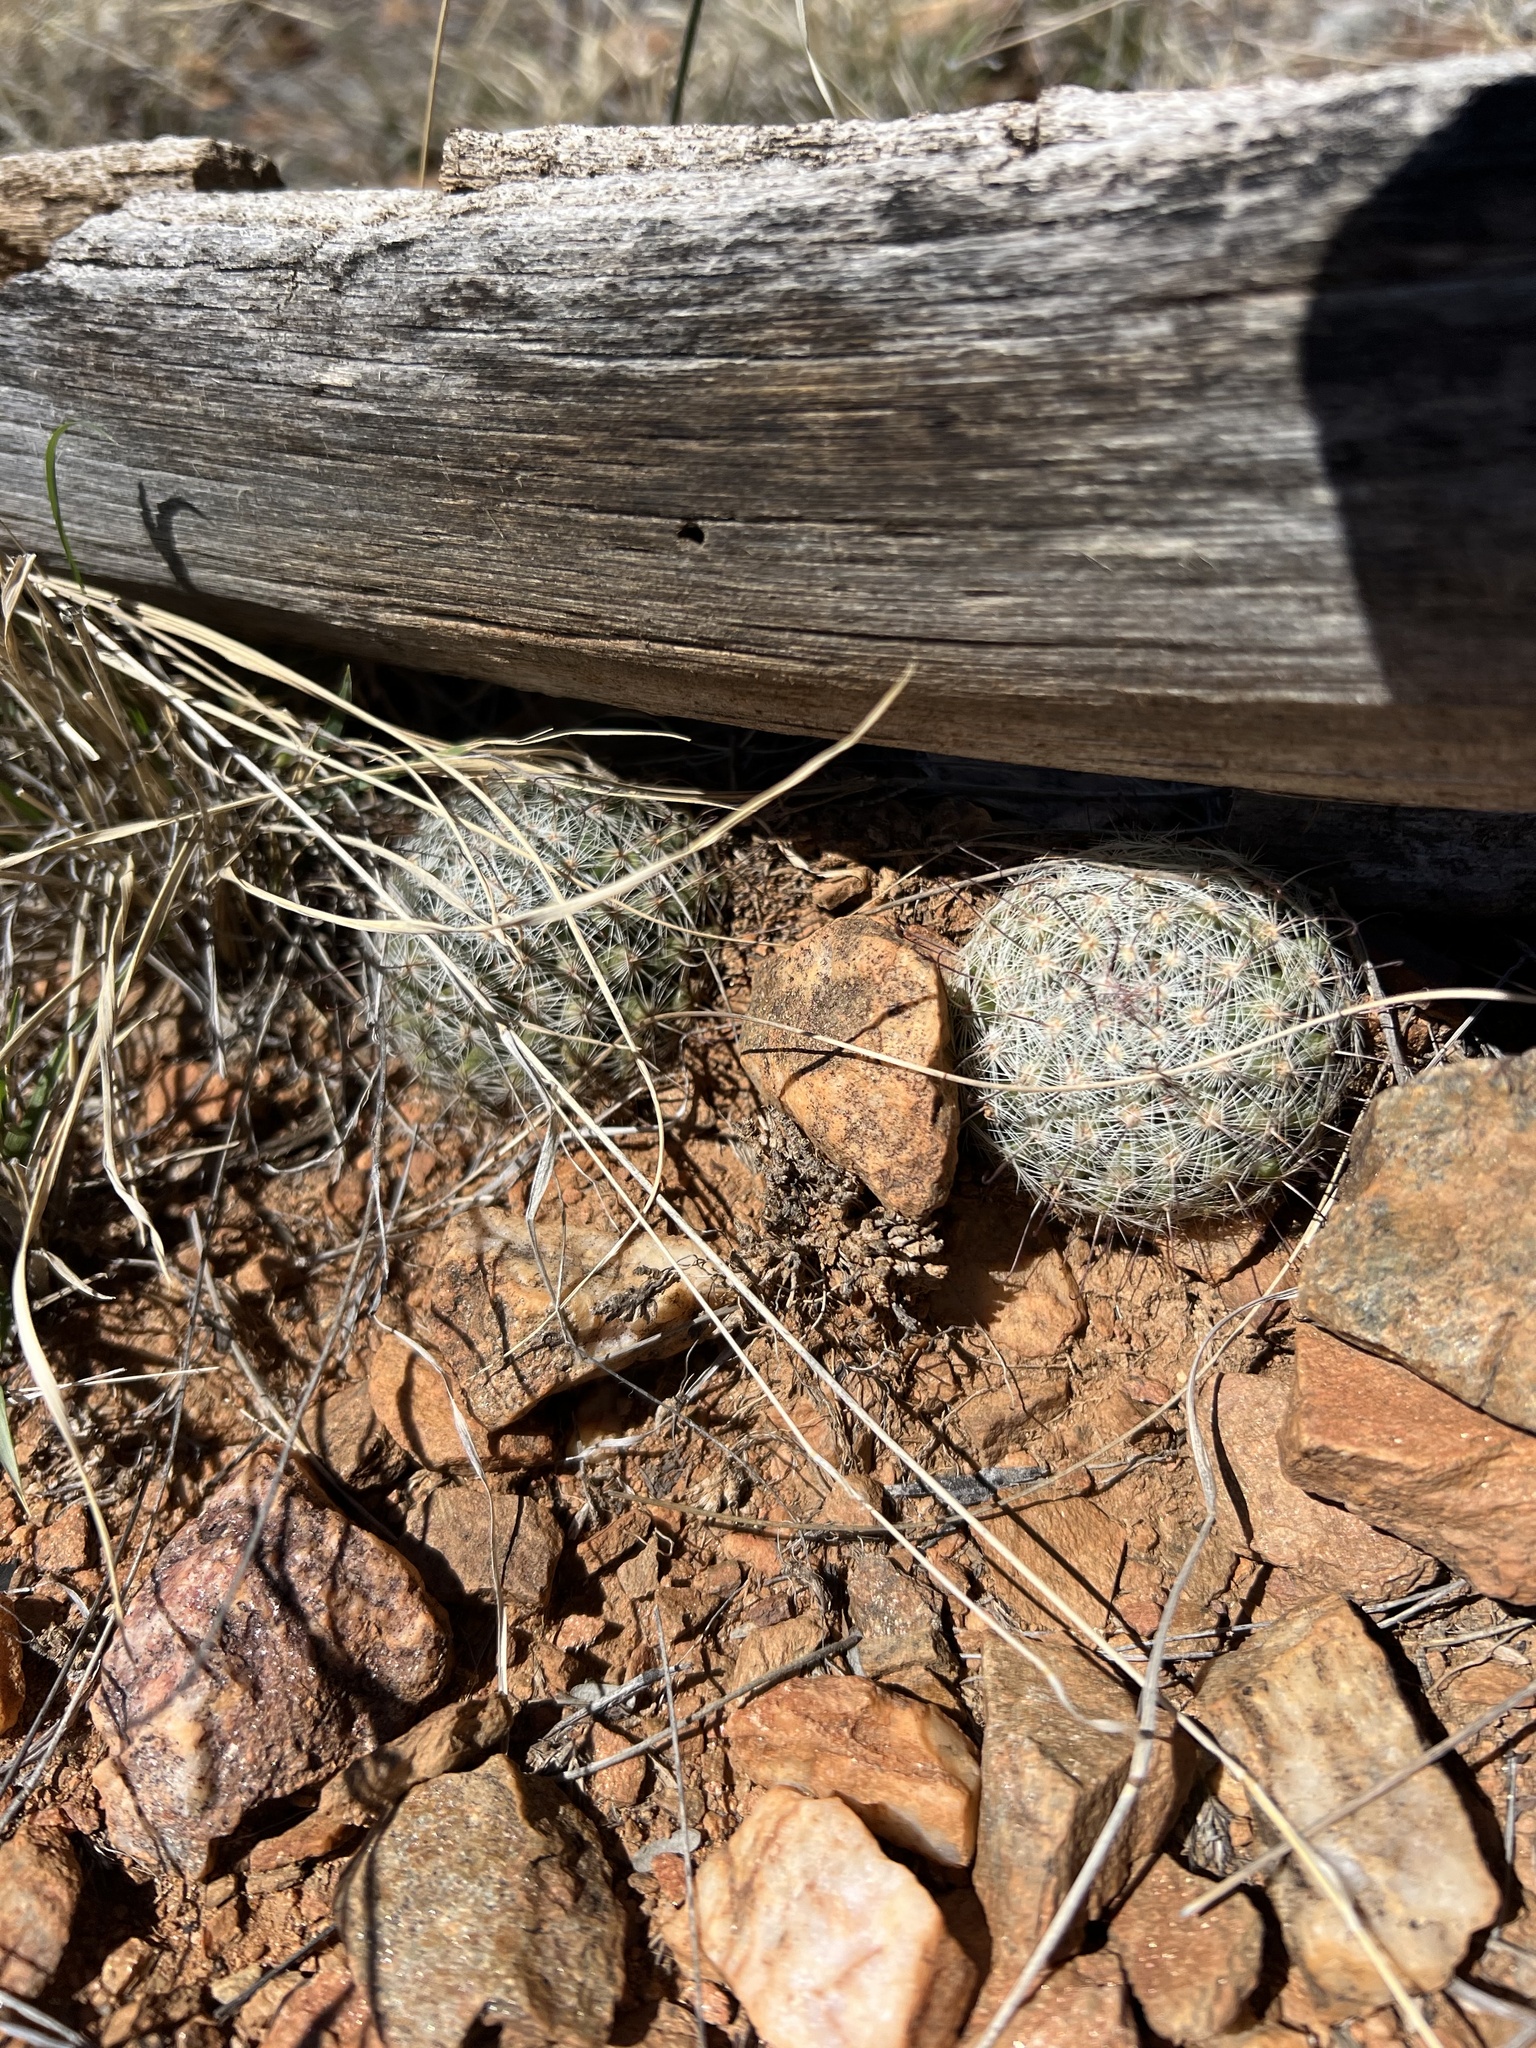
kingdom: Plantae
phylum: Tracheophyta
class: Magnoliopsida
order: Caryophyllales
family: Cactaceae
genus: Cochemiea
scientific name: Cochemiea grahamii
